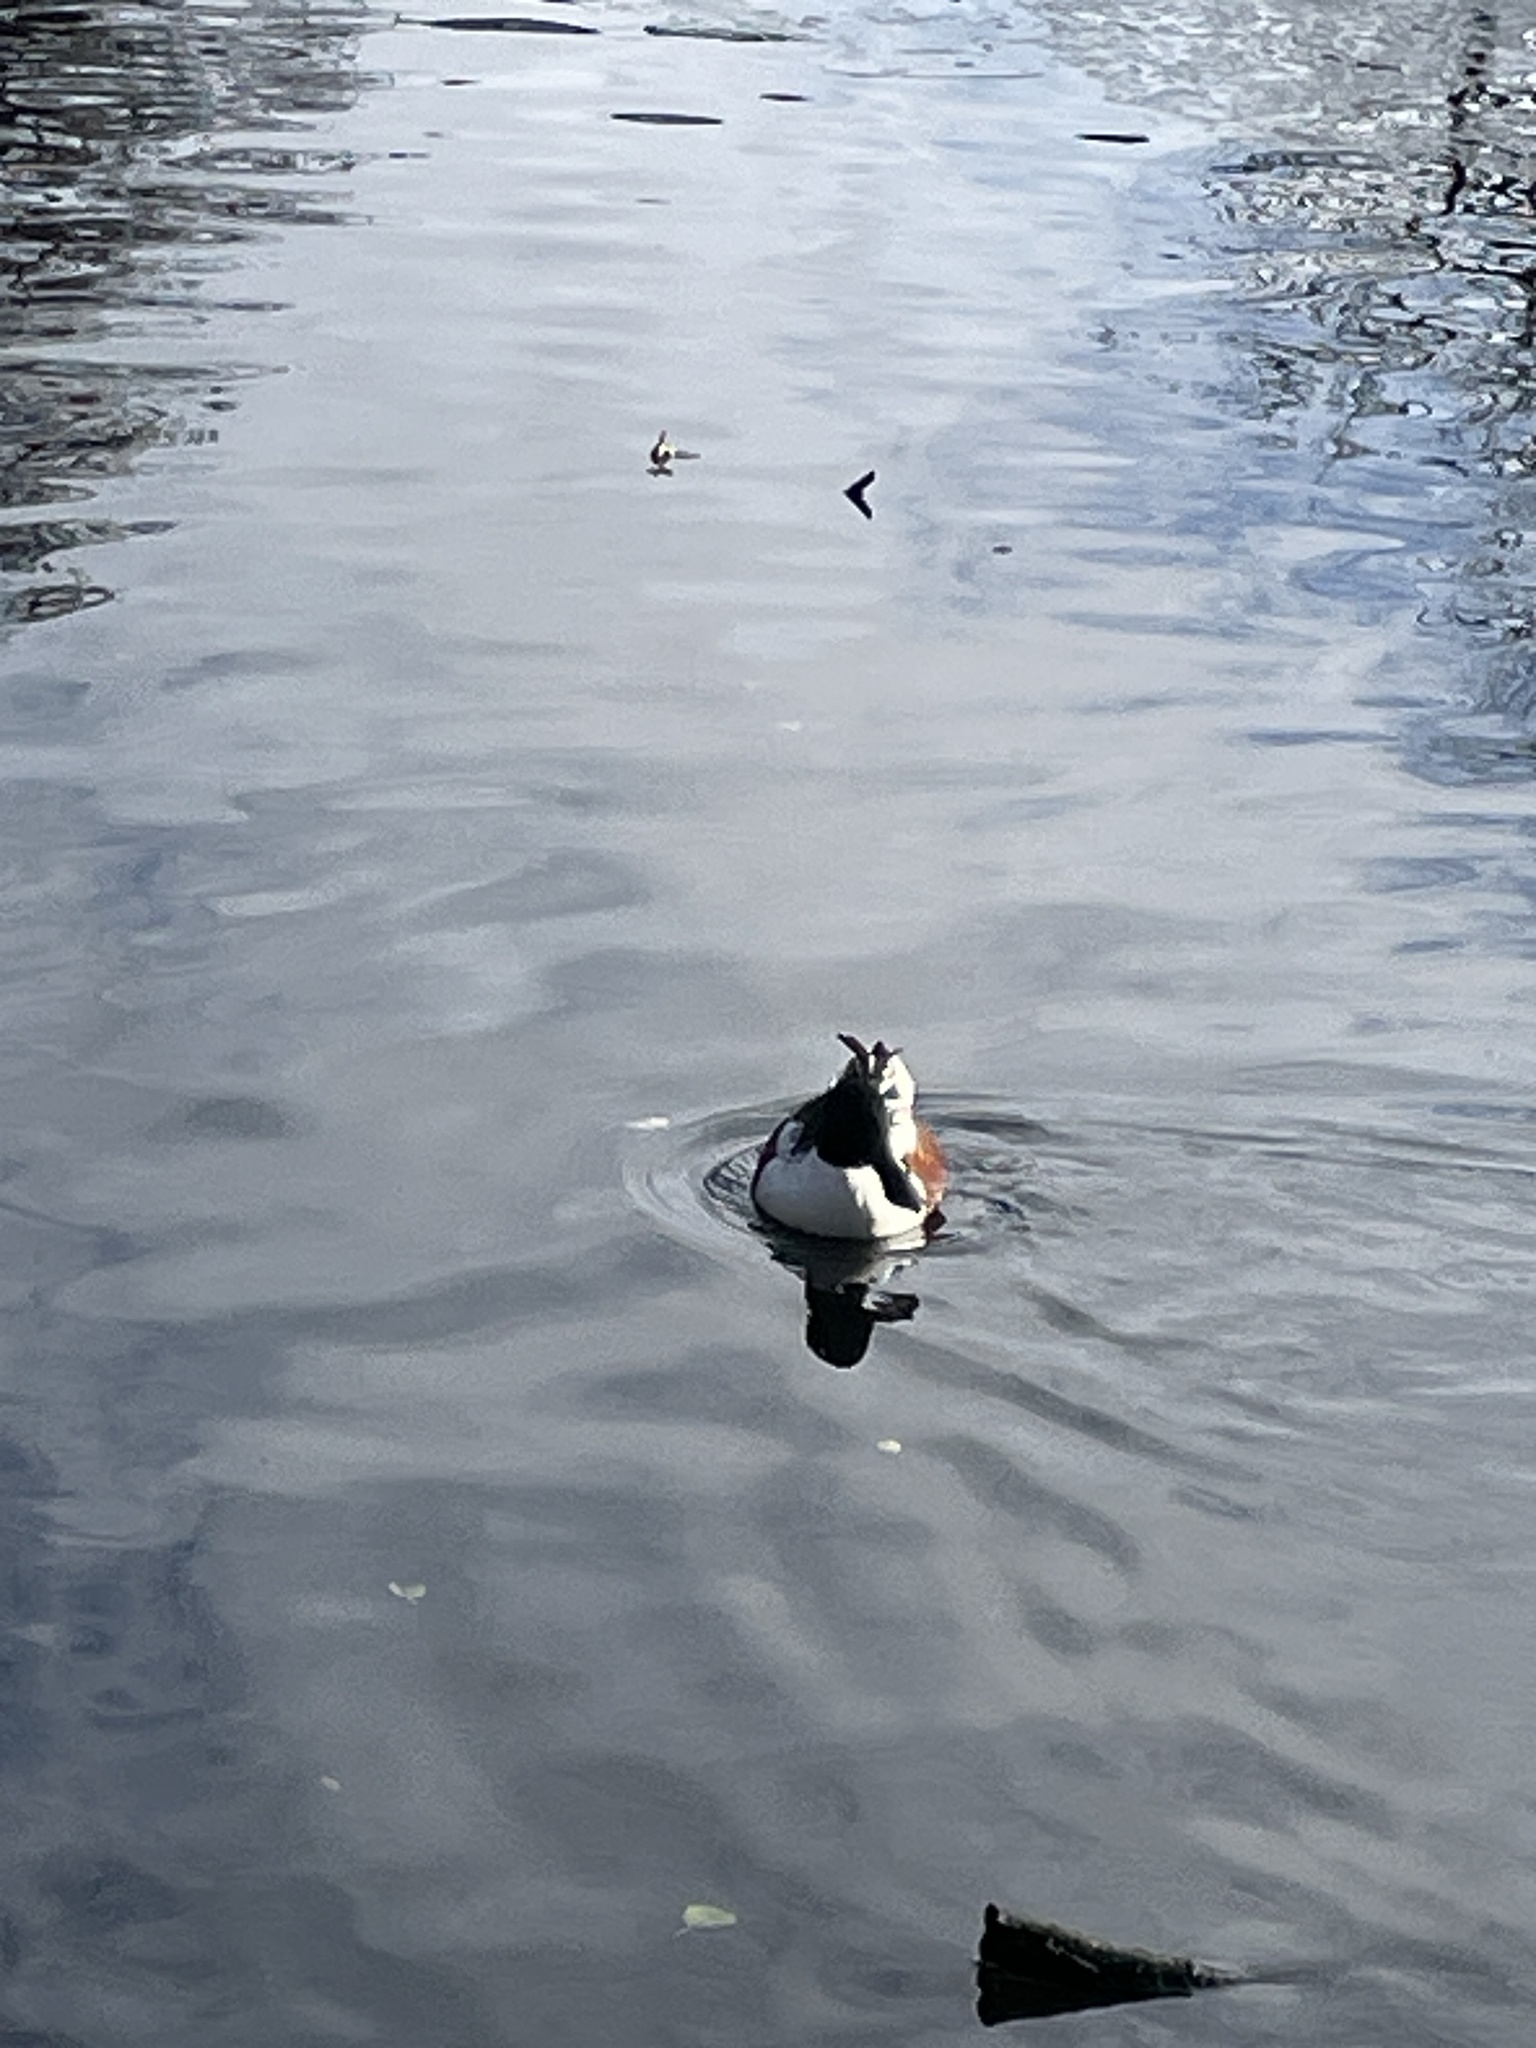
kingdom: Animalia
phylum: Chordata
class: Aves
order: Anseriformes
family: Anatidae
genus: Spatula
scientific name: Spatula clypeata
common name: Northern shoveler
